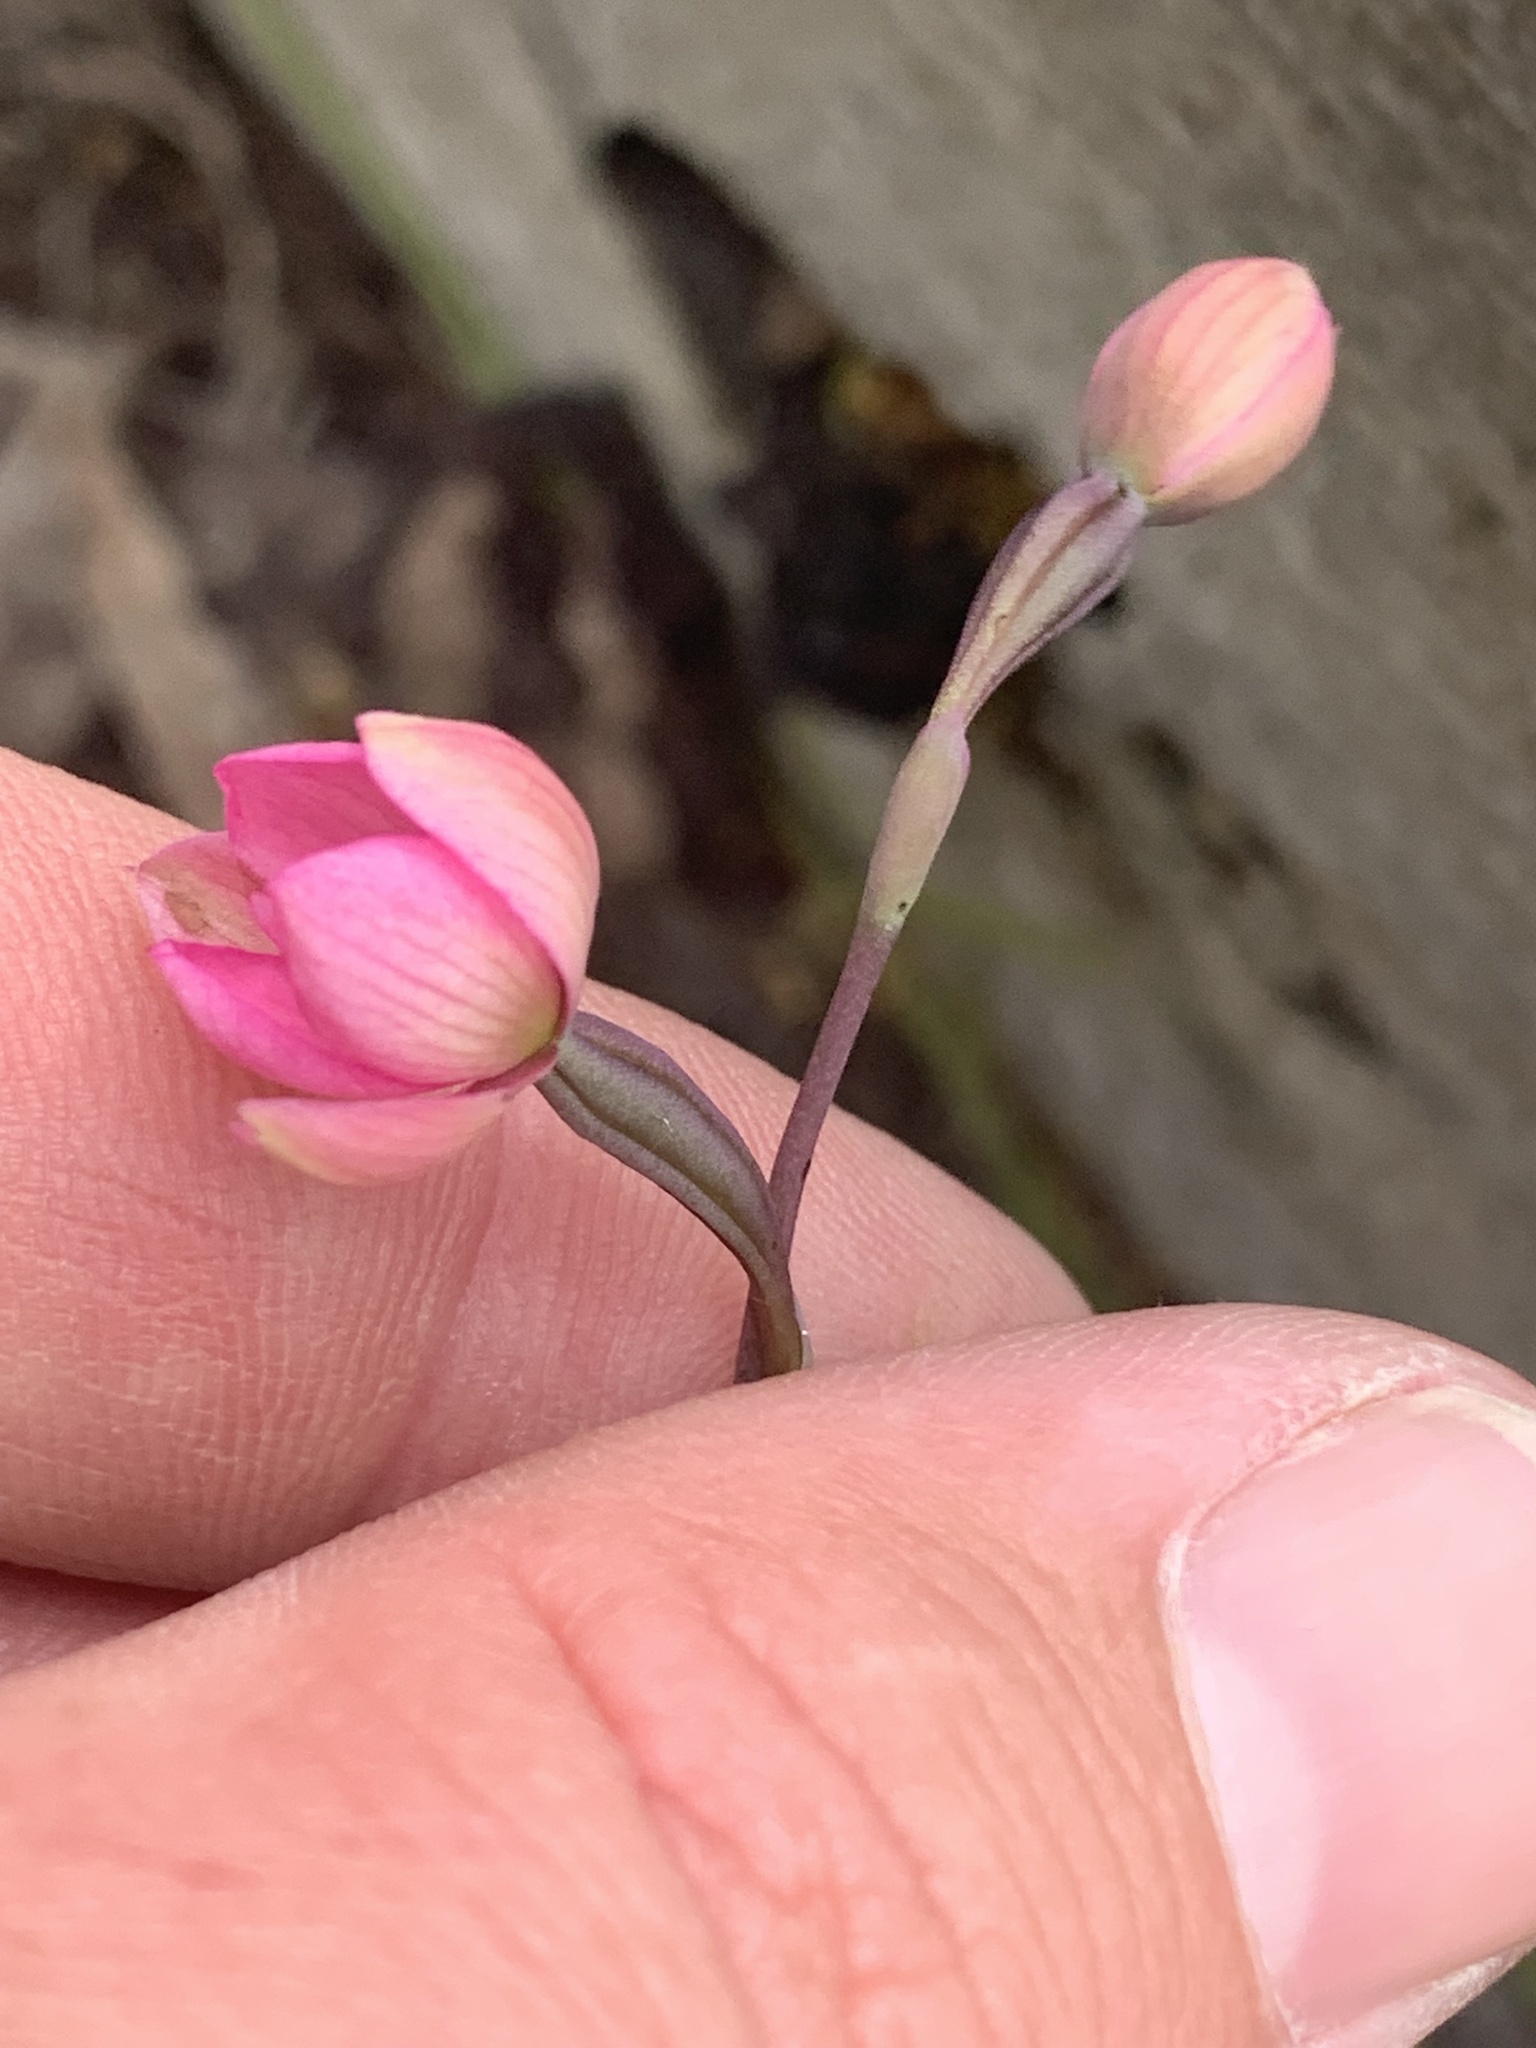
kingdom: Plantae
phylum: Tracheophyta
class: Liliopsida
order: Asparagales
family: Orchidaceae
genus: Thelymitra
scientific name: Thelymitra carnea
